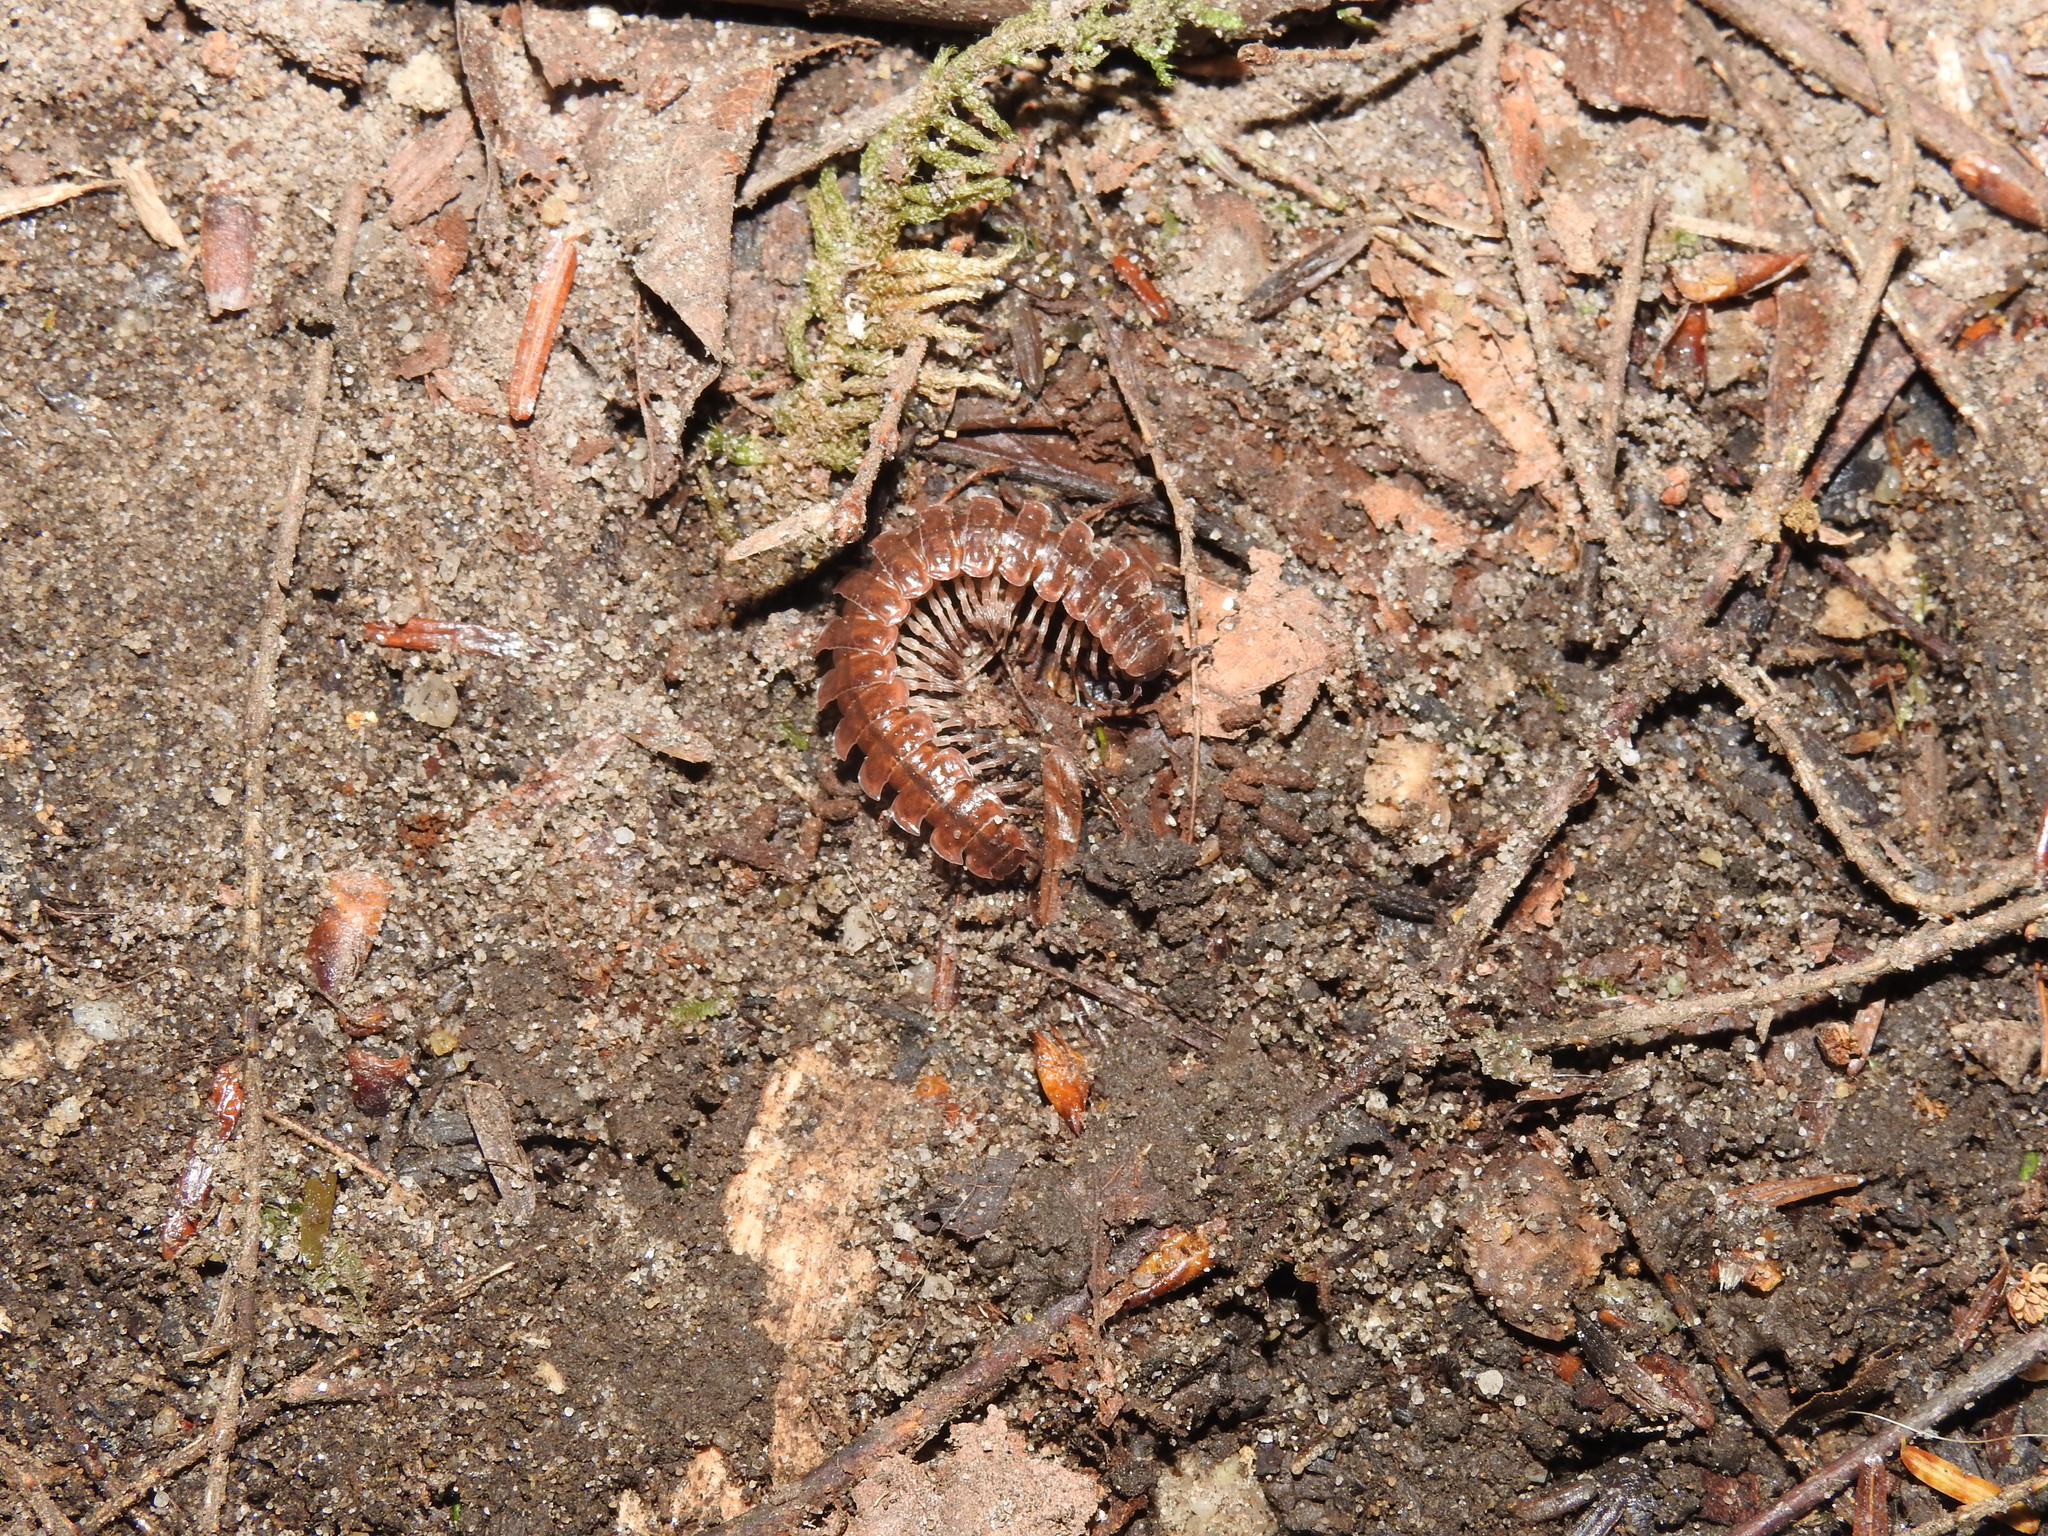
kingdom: Animalia
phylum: Arthropoda
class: Diplopoda
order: Polydesmida
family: Polydesmidae
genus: Pseudopolydesmus
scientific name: Pseudopolydesmus serratus
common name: Common pink flat-back millipede
